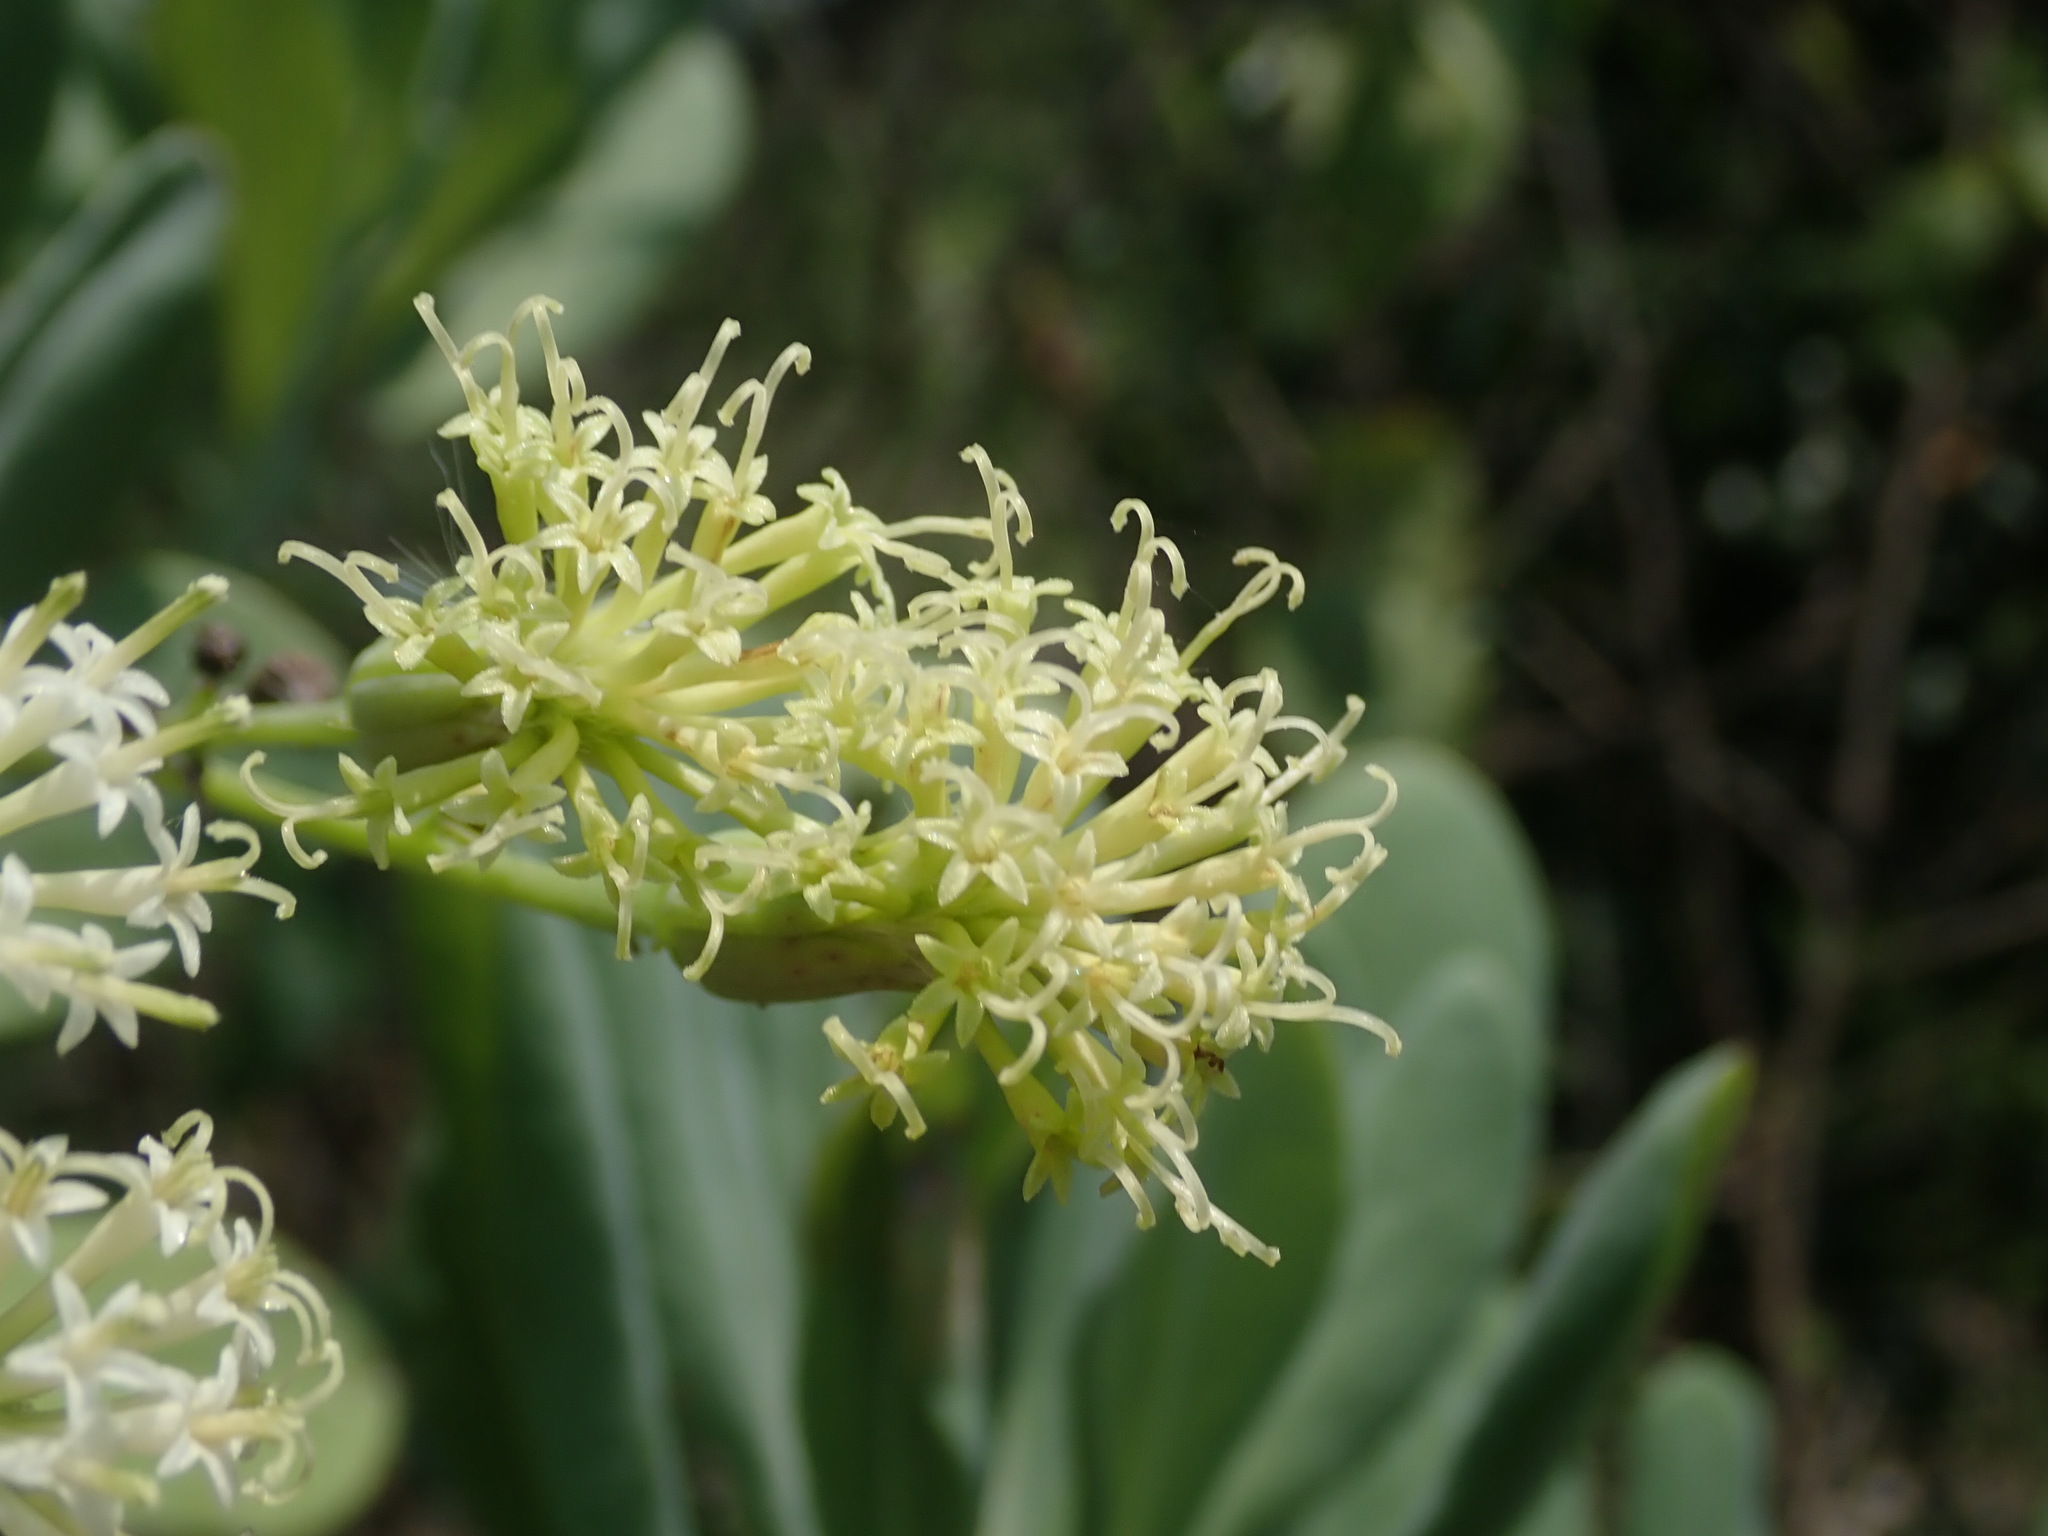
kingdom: Plantae
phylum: Tracheophyta
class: Magnoliopsida
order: Asterales
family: Asteraceae
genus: Kleinia
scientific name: Kleinia grandiflora
